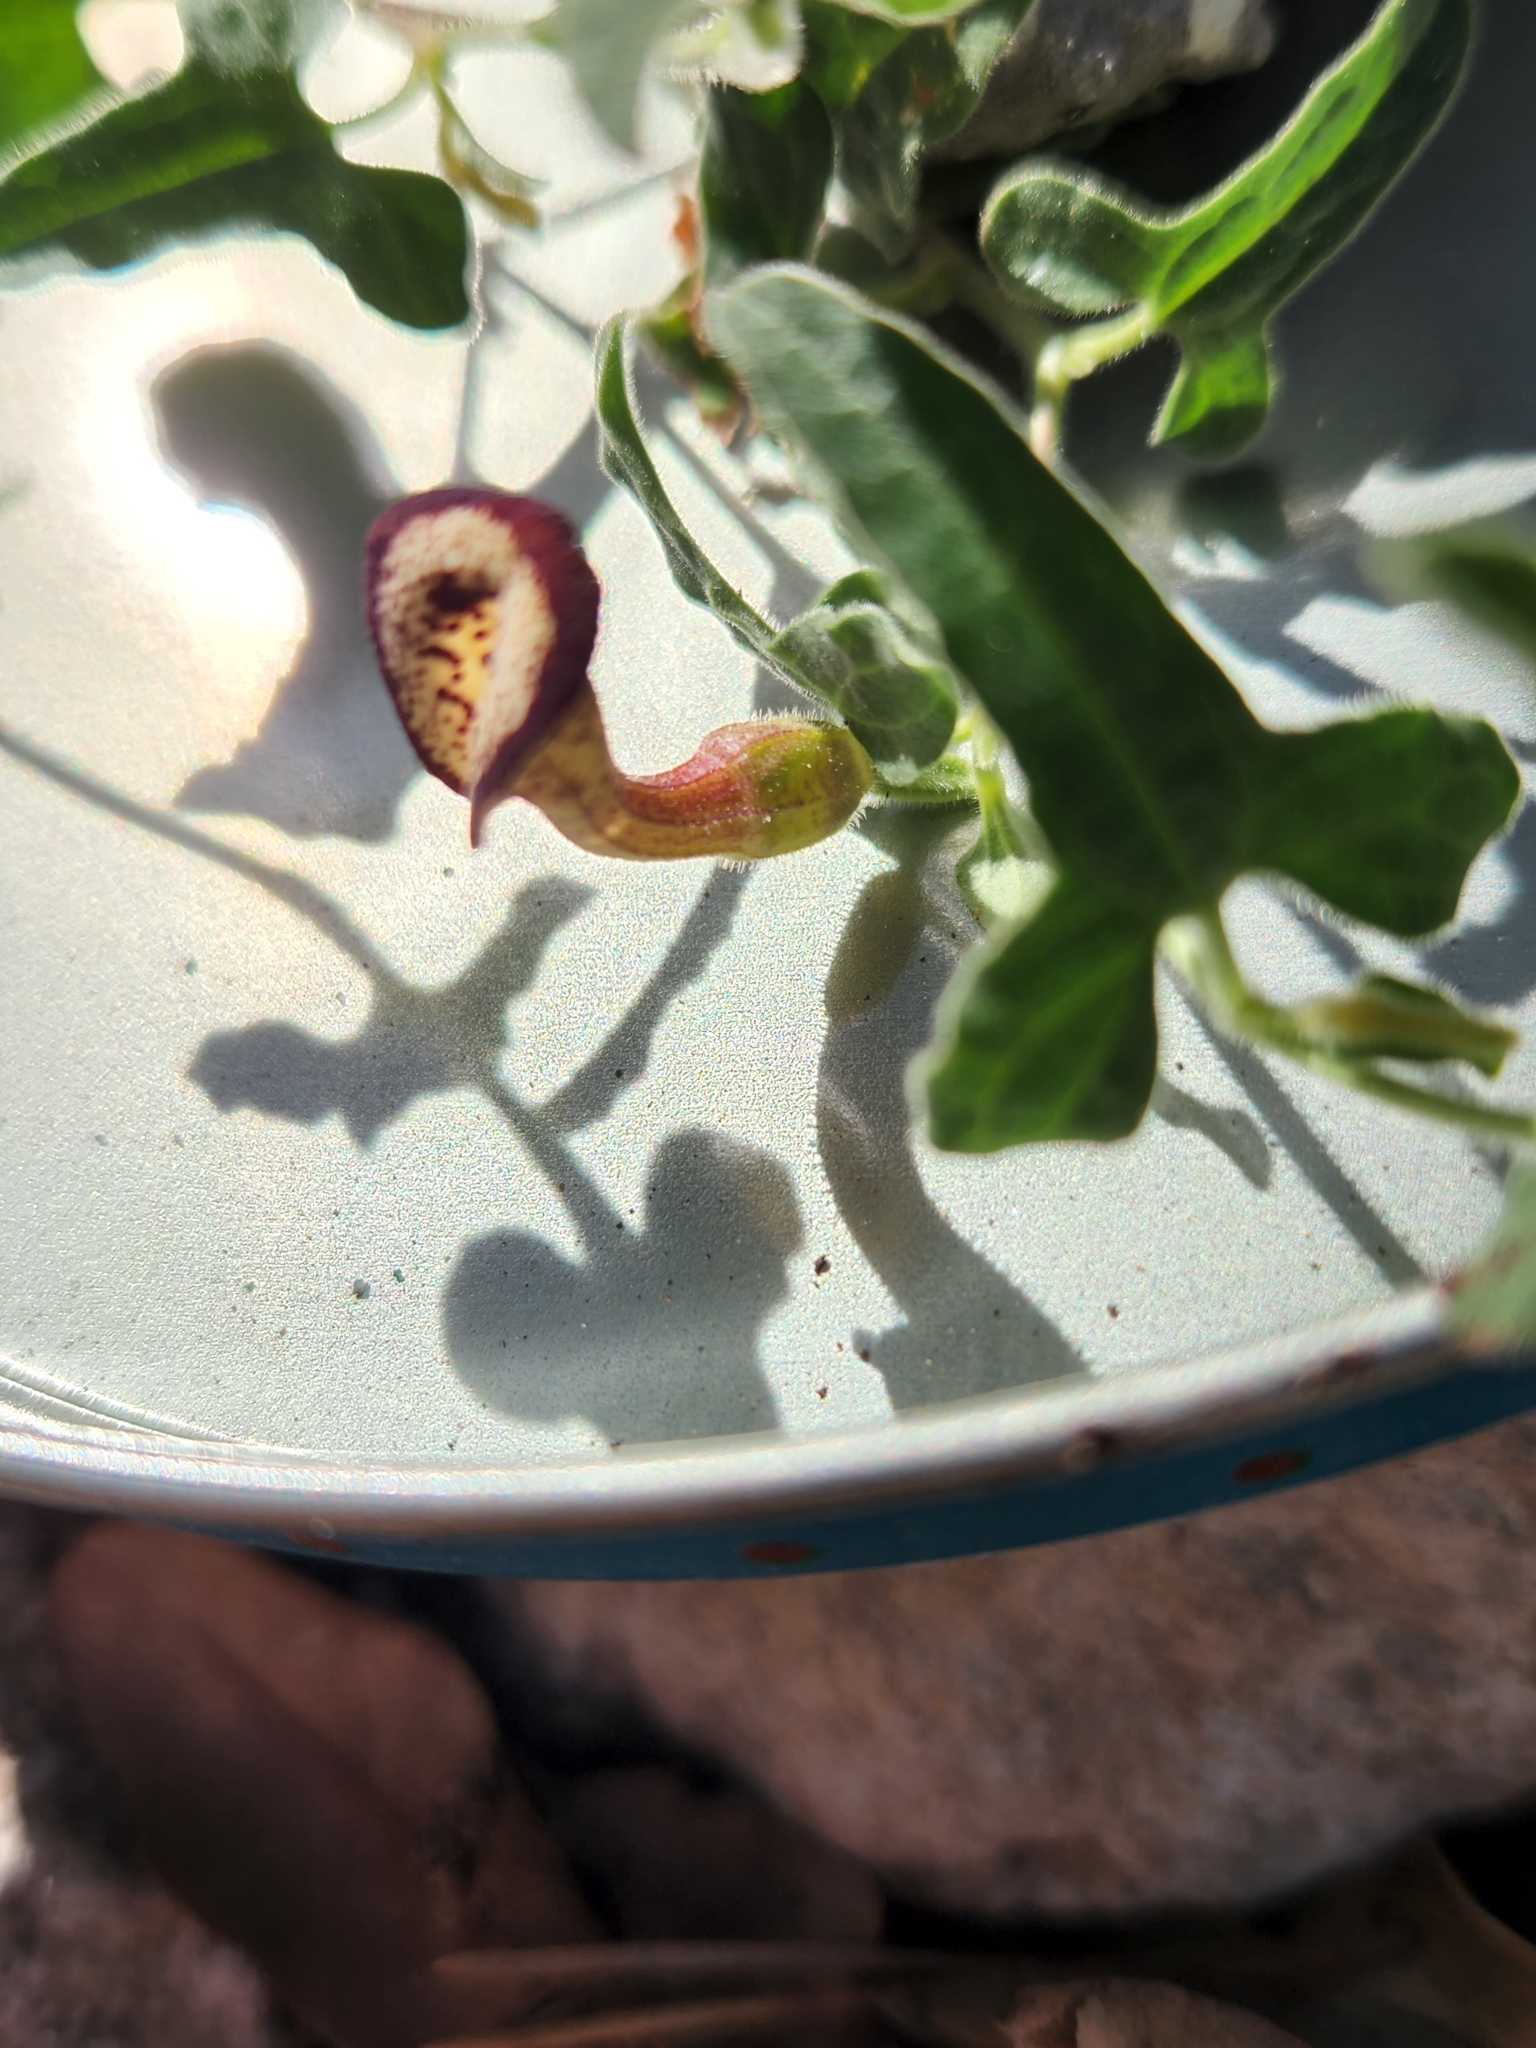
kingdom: Plantae
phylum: Tracheophyta
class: Magnoliopsida
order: Piperales
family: Aristolochiaceae
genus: Aristolochia
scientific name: Aristolochia coryi
